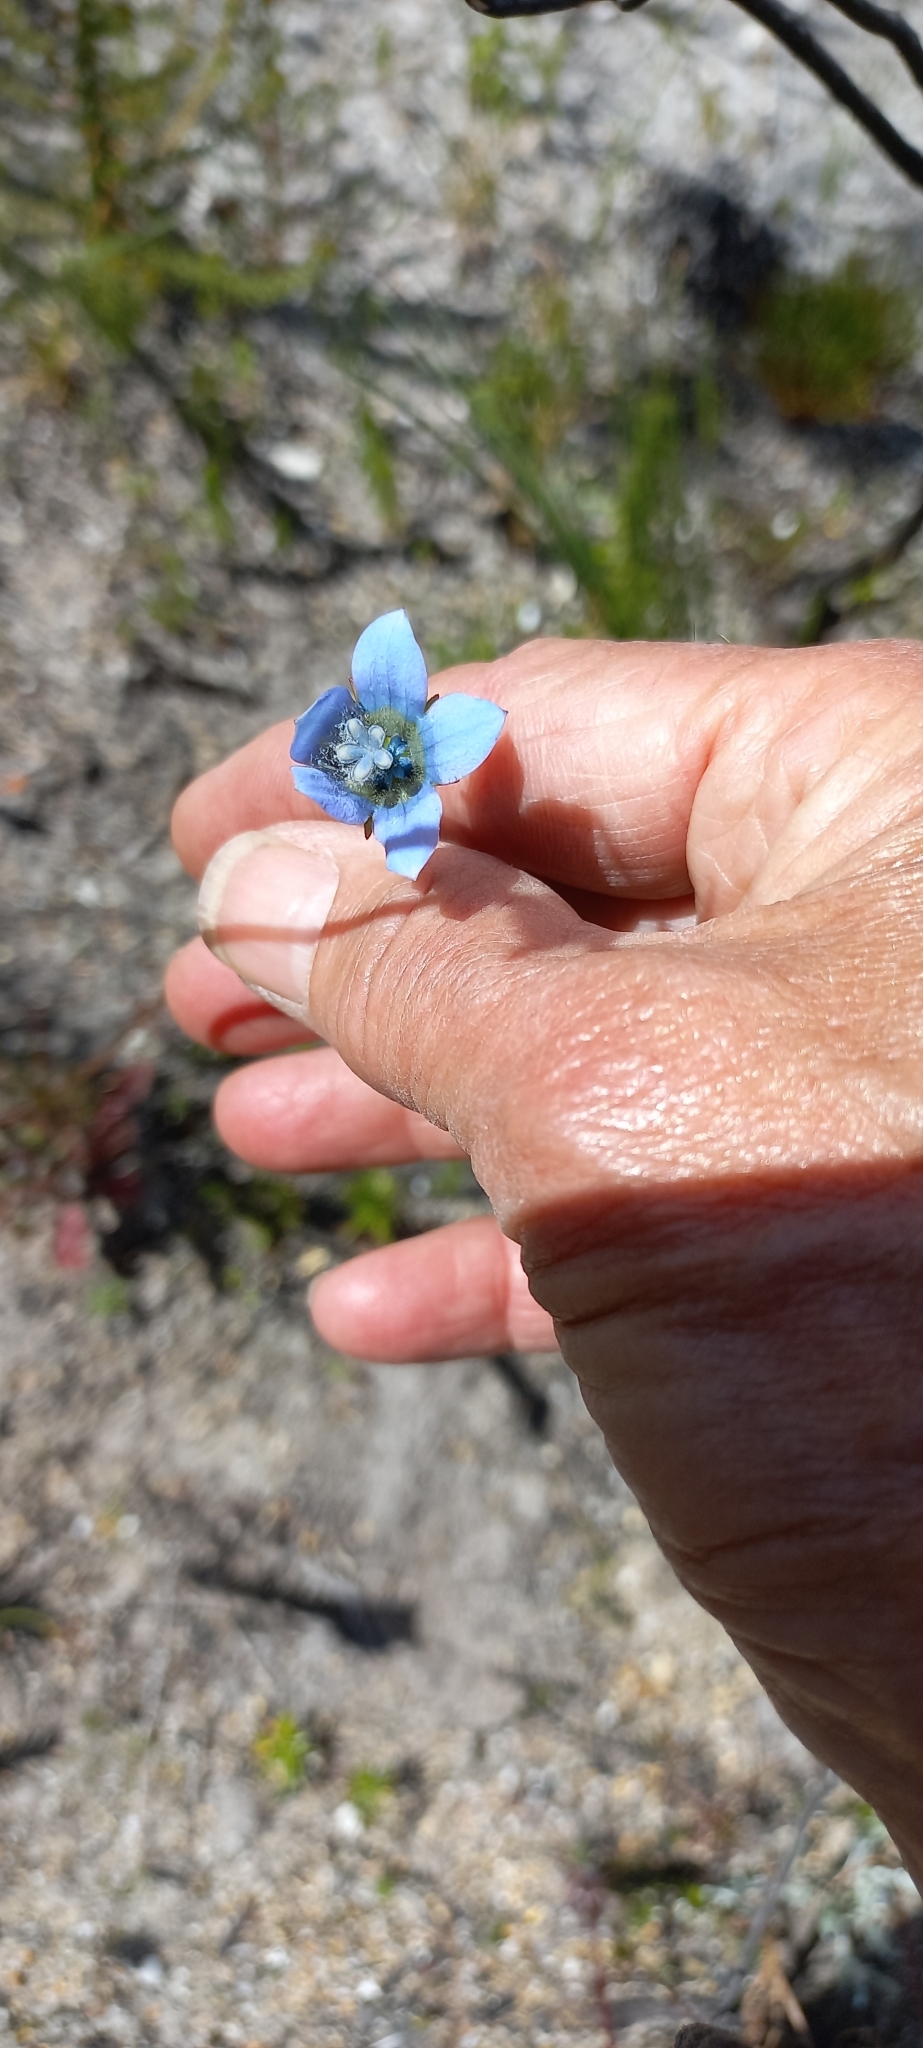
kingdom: Plantae
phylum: Tracheophyta
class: Magnoliopsida
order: Asterales
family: Campanulaceae
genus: Wahlenbergia
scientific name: Wahlenbergia capensis
